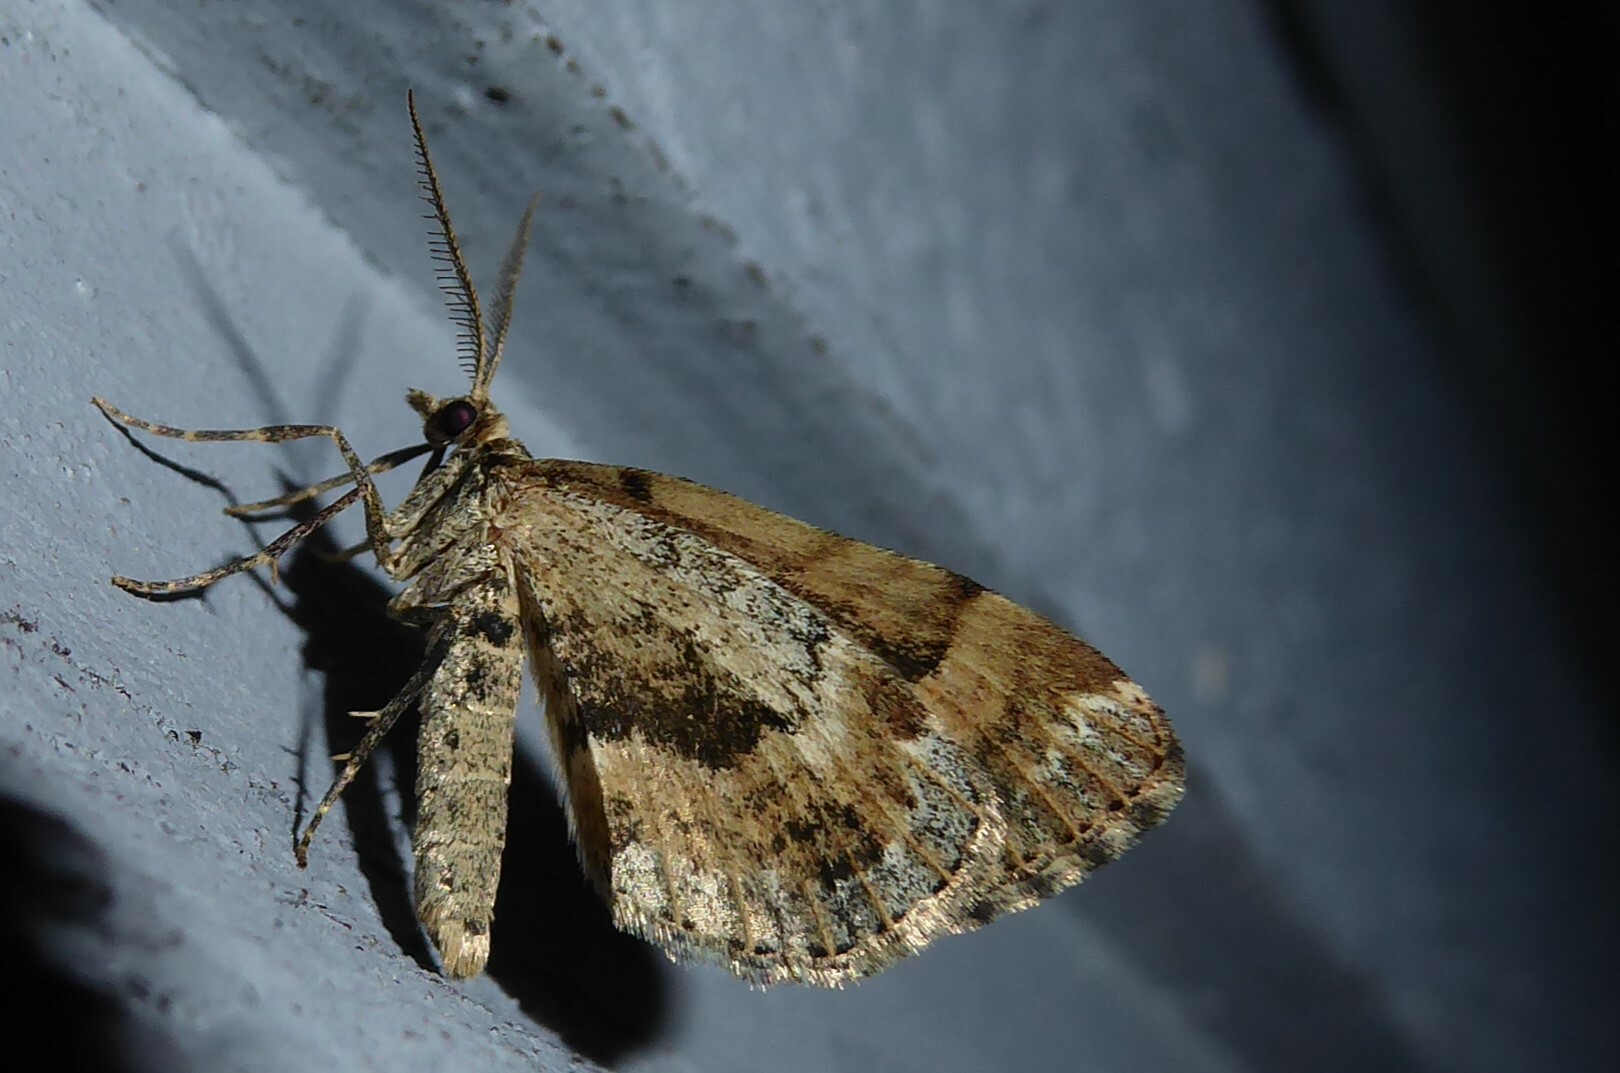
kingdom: Animalia
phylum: Arthropoda
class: Insecta
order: Lepidoptera
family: Geometridae
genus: Asaphodes
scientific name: Asaphodes aegrota
